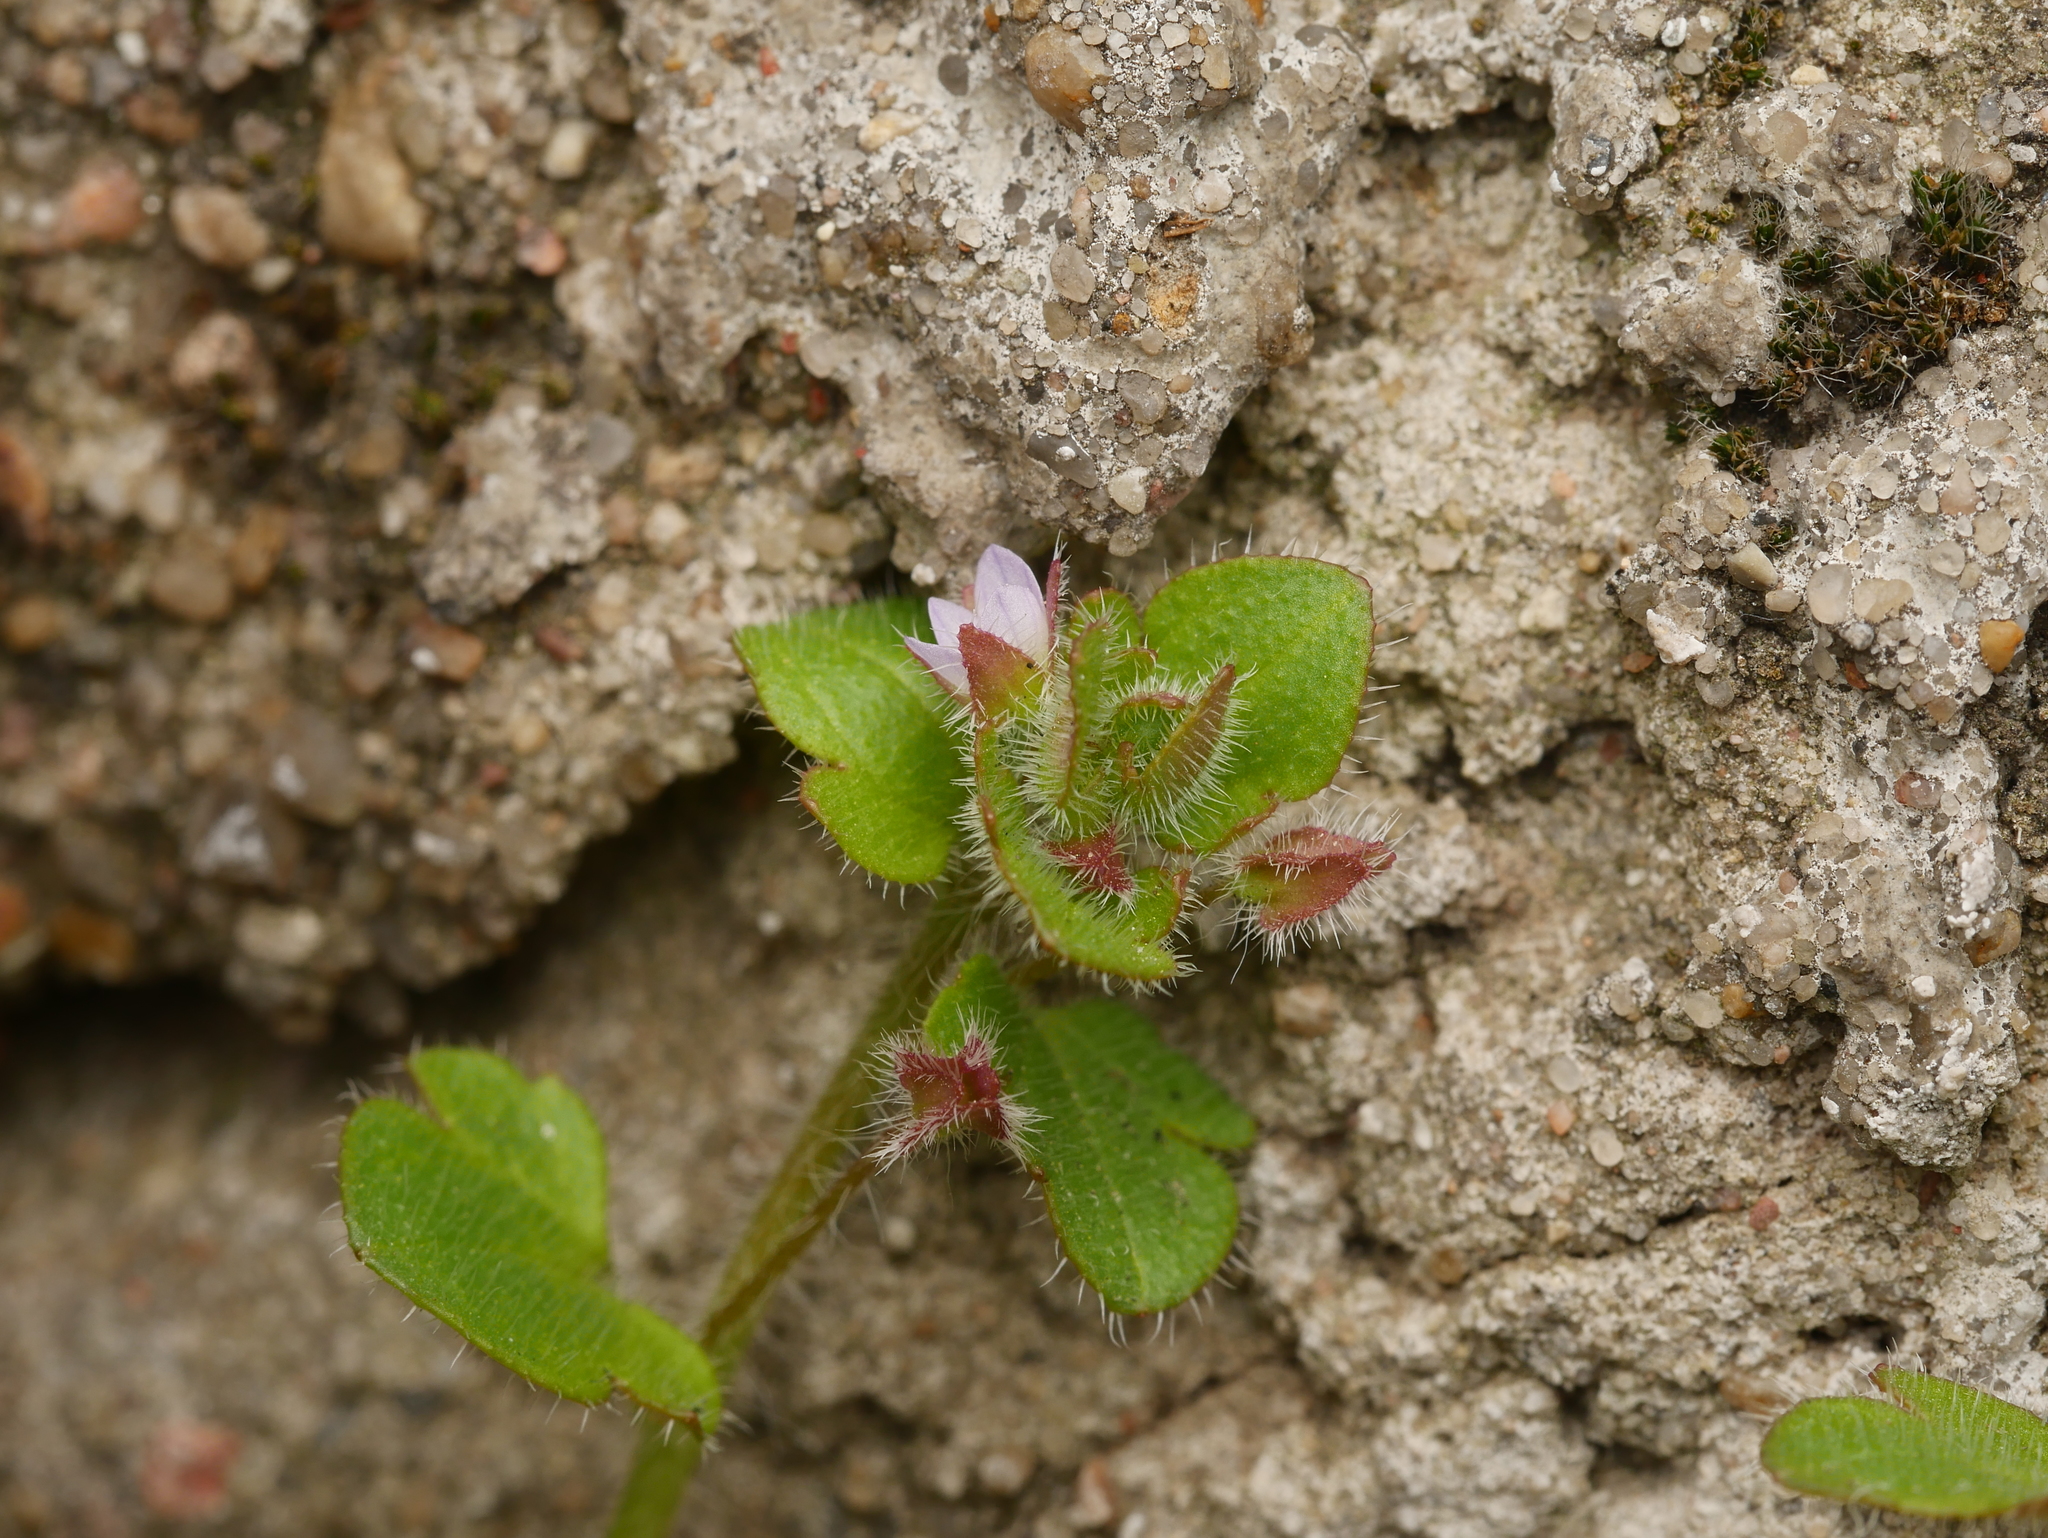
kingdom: Plantae
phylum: Tracheophyta
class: Magnoliopsida
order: Lamiales
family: Plantaginaceae
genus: Veronica
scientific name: Veronica sublobata
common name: False ivy-leaved speedwell
